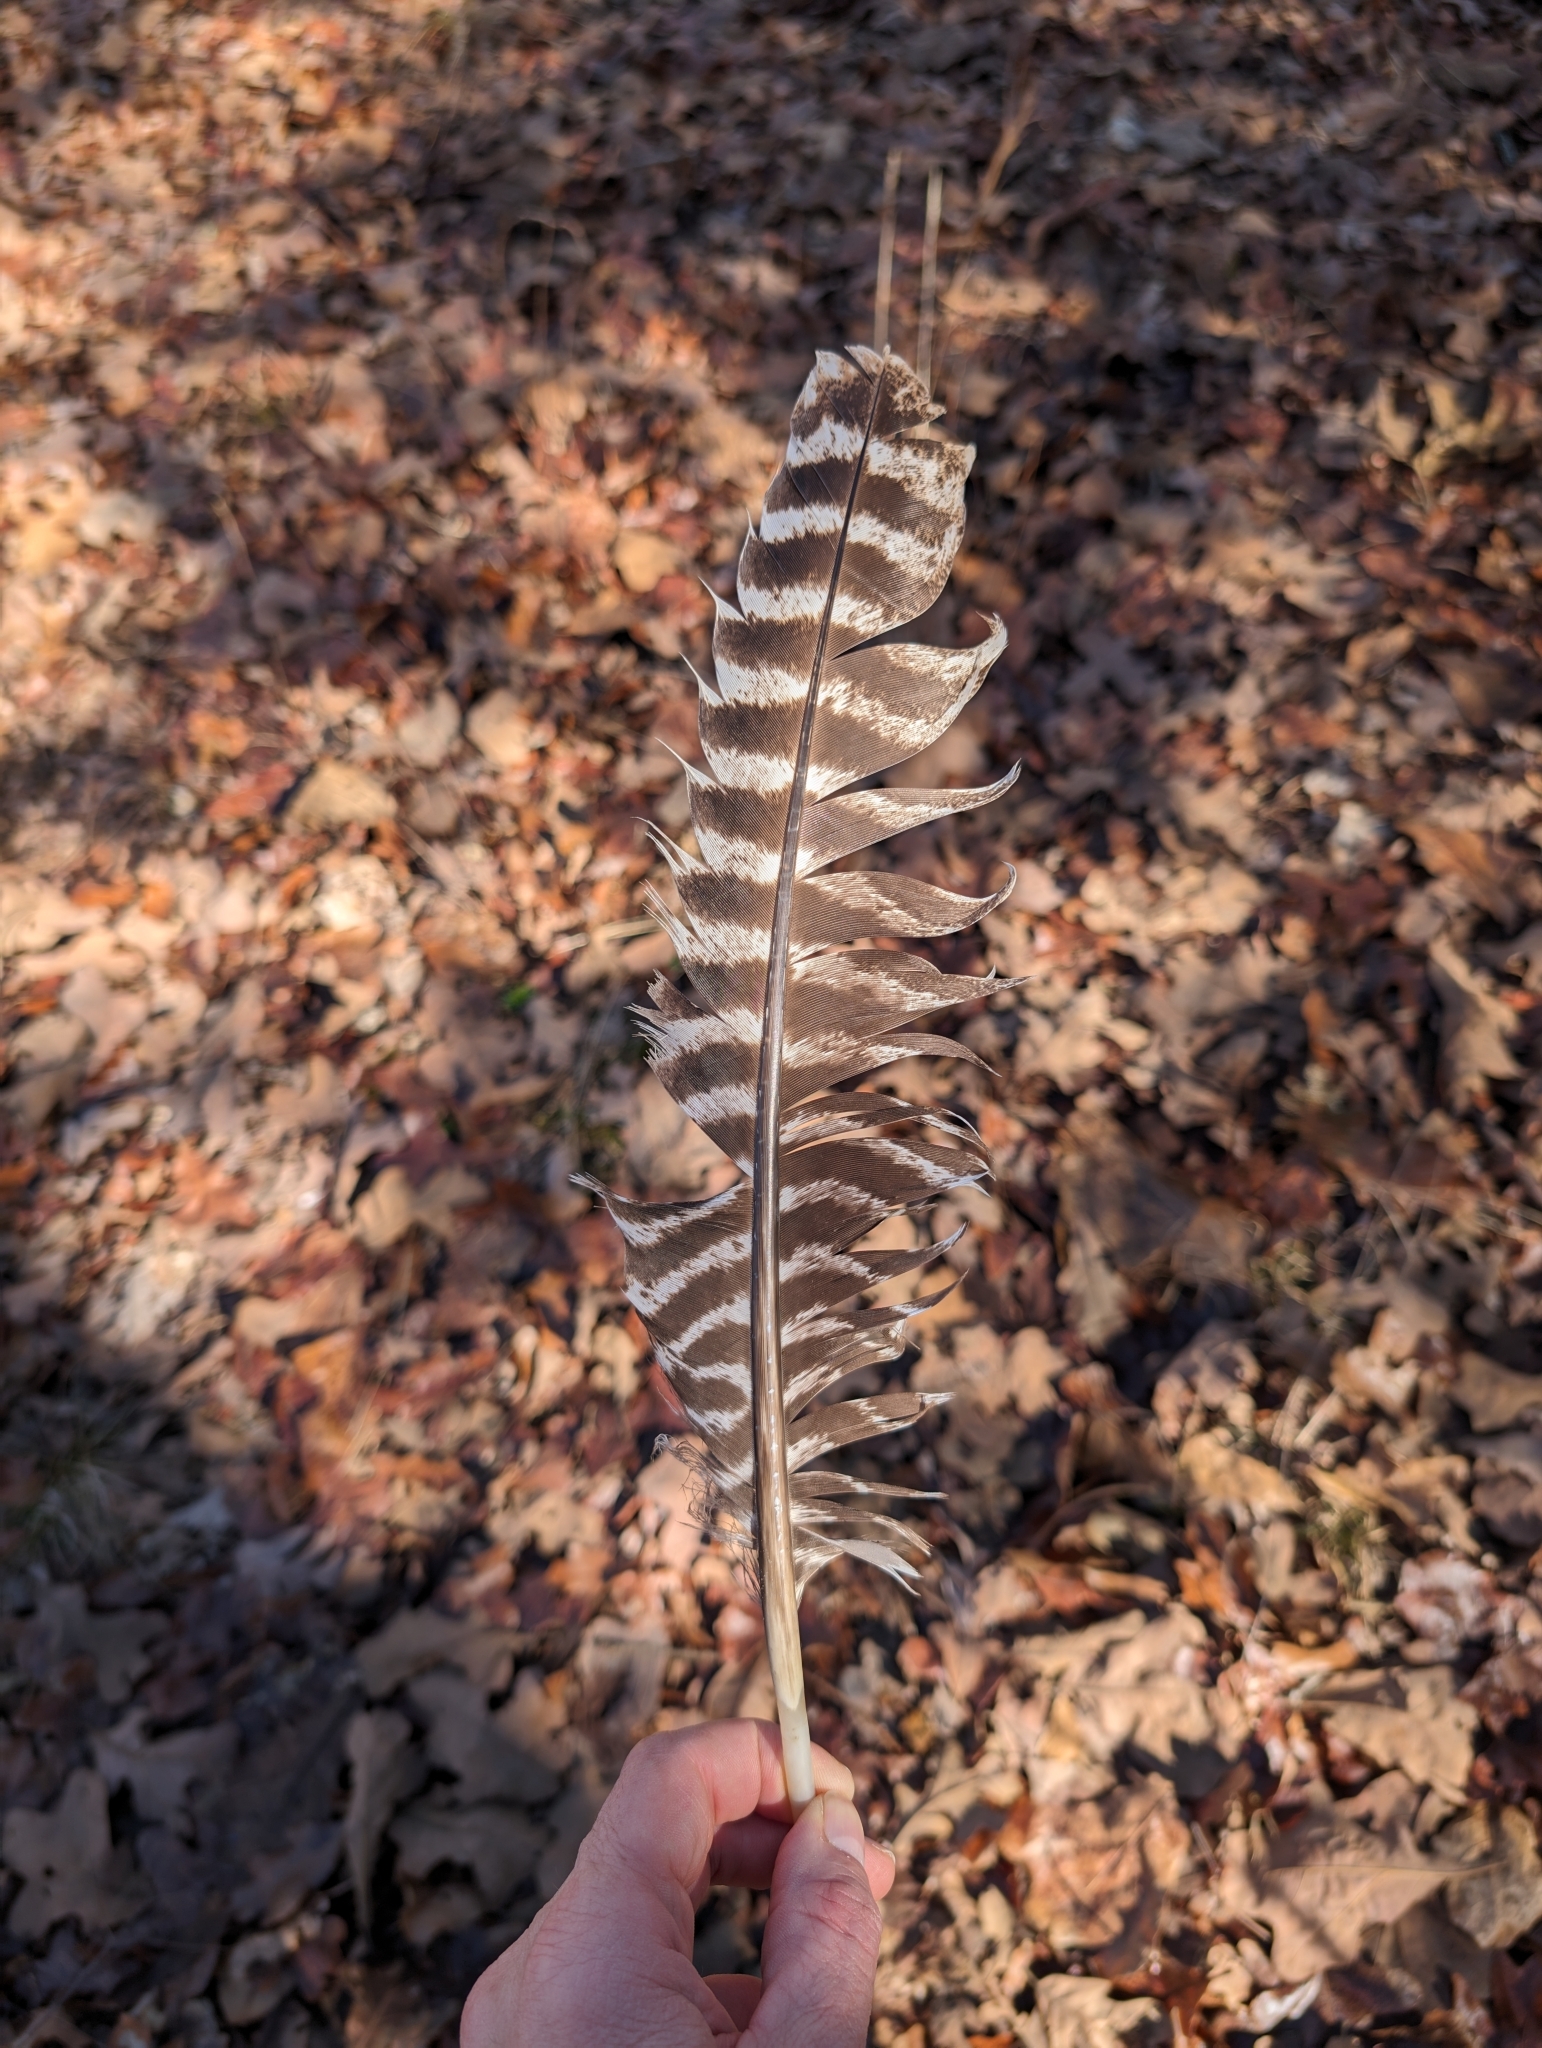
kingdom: Animalia
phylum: Chordata
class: Aves
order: Galliformes
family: Phasianidae
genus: Meleagris
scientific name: Meleagris gallopavo
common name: Wild turkey
